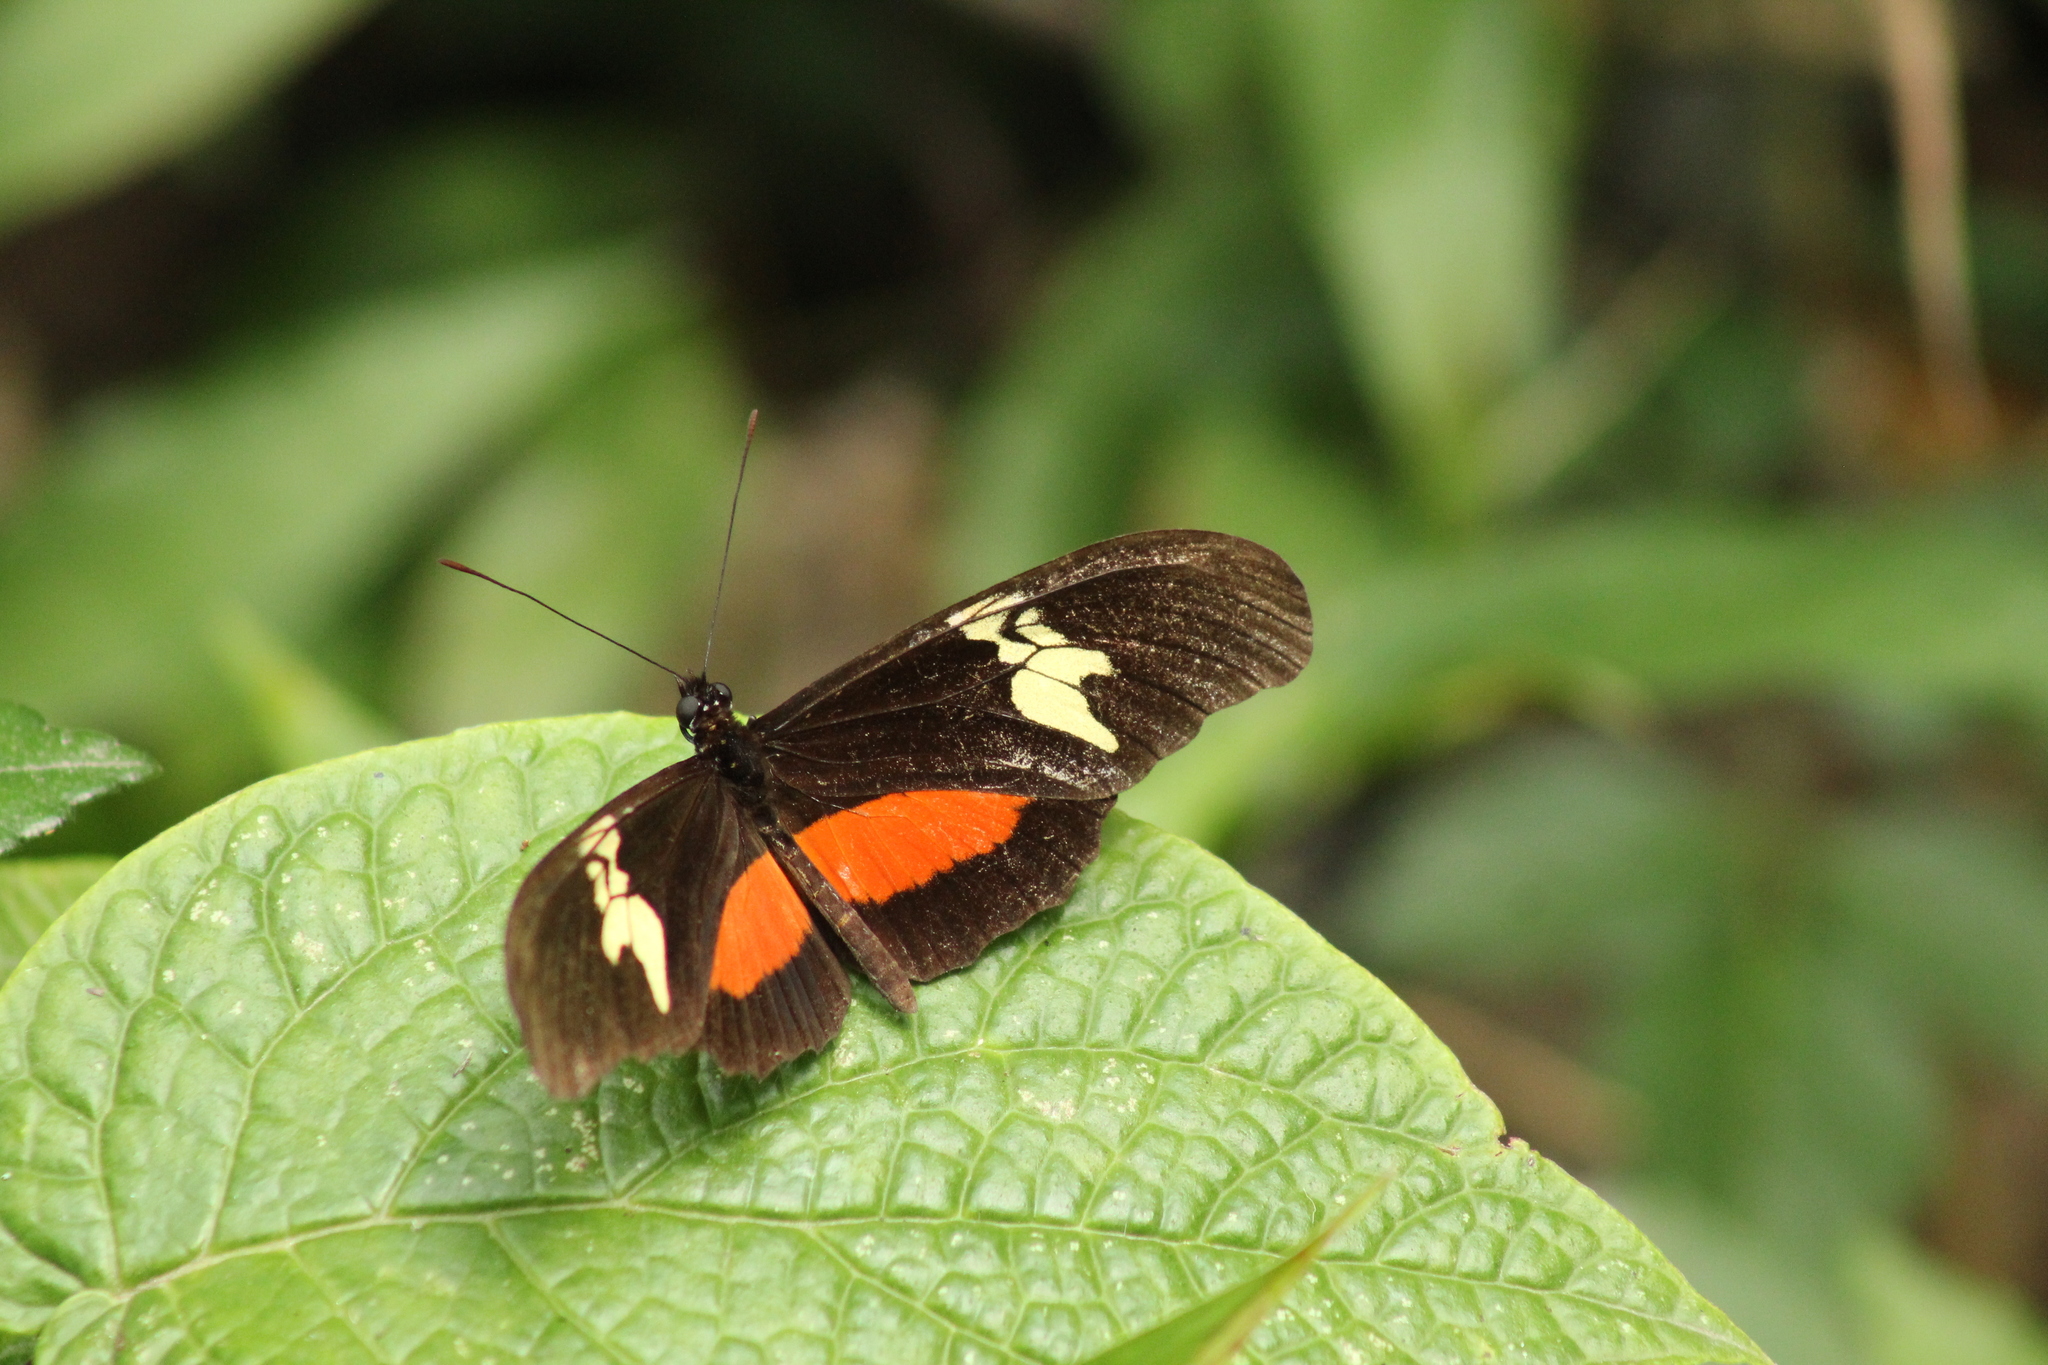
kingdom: Animalia
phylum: Arthropoda
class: Insecta
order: Lepidoptera
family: Nymphalidae
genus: Heliconius
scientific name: Heliconius hortense
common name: Mexican longwing
